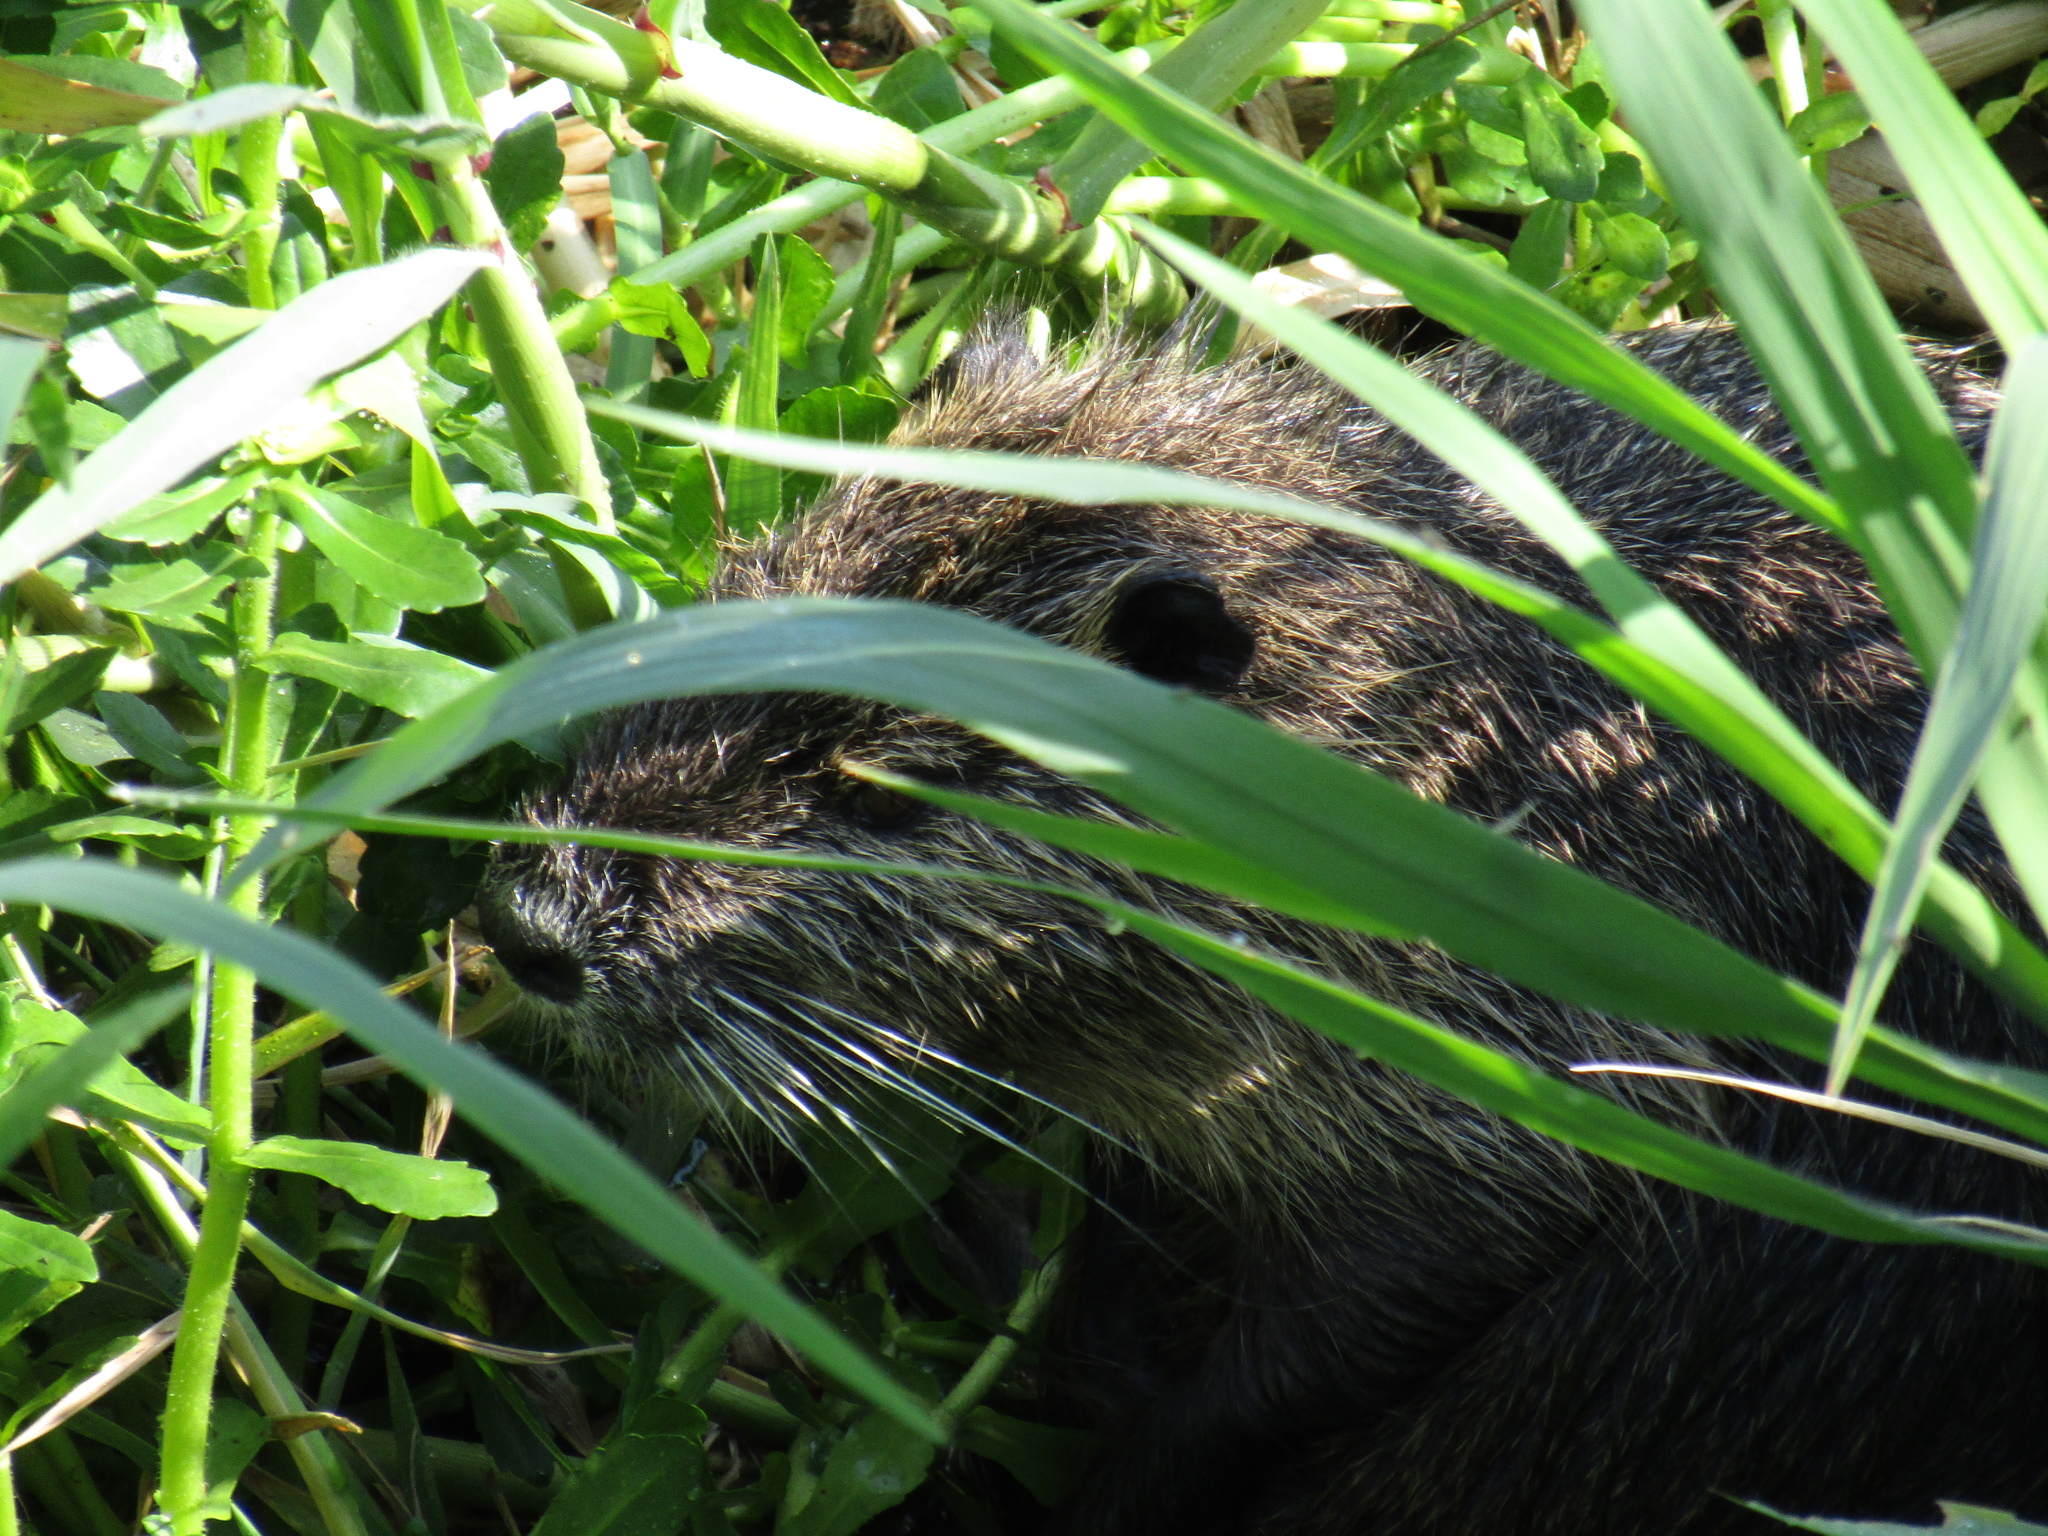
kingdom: Animalia
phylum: Chordata
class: Mammalia
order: Rodentia
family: Myocastoridae
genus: Myocastor
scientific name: Myocastor coypus
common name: Coypu
